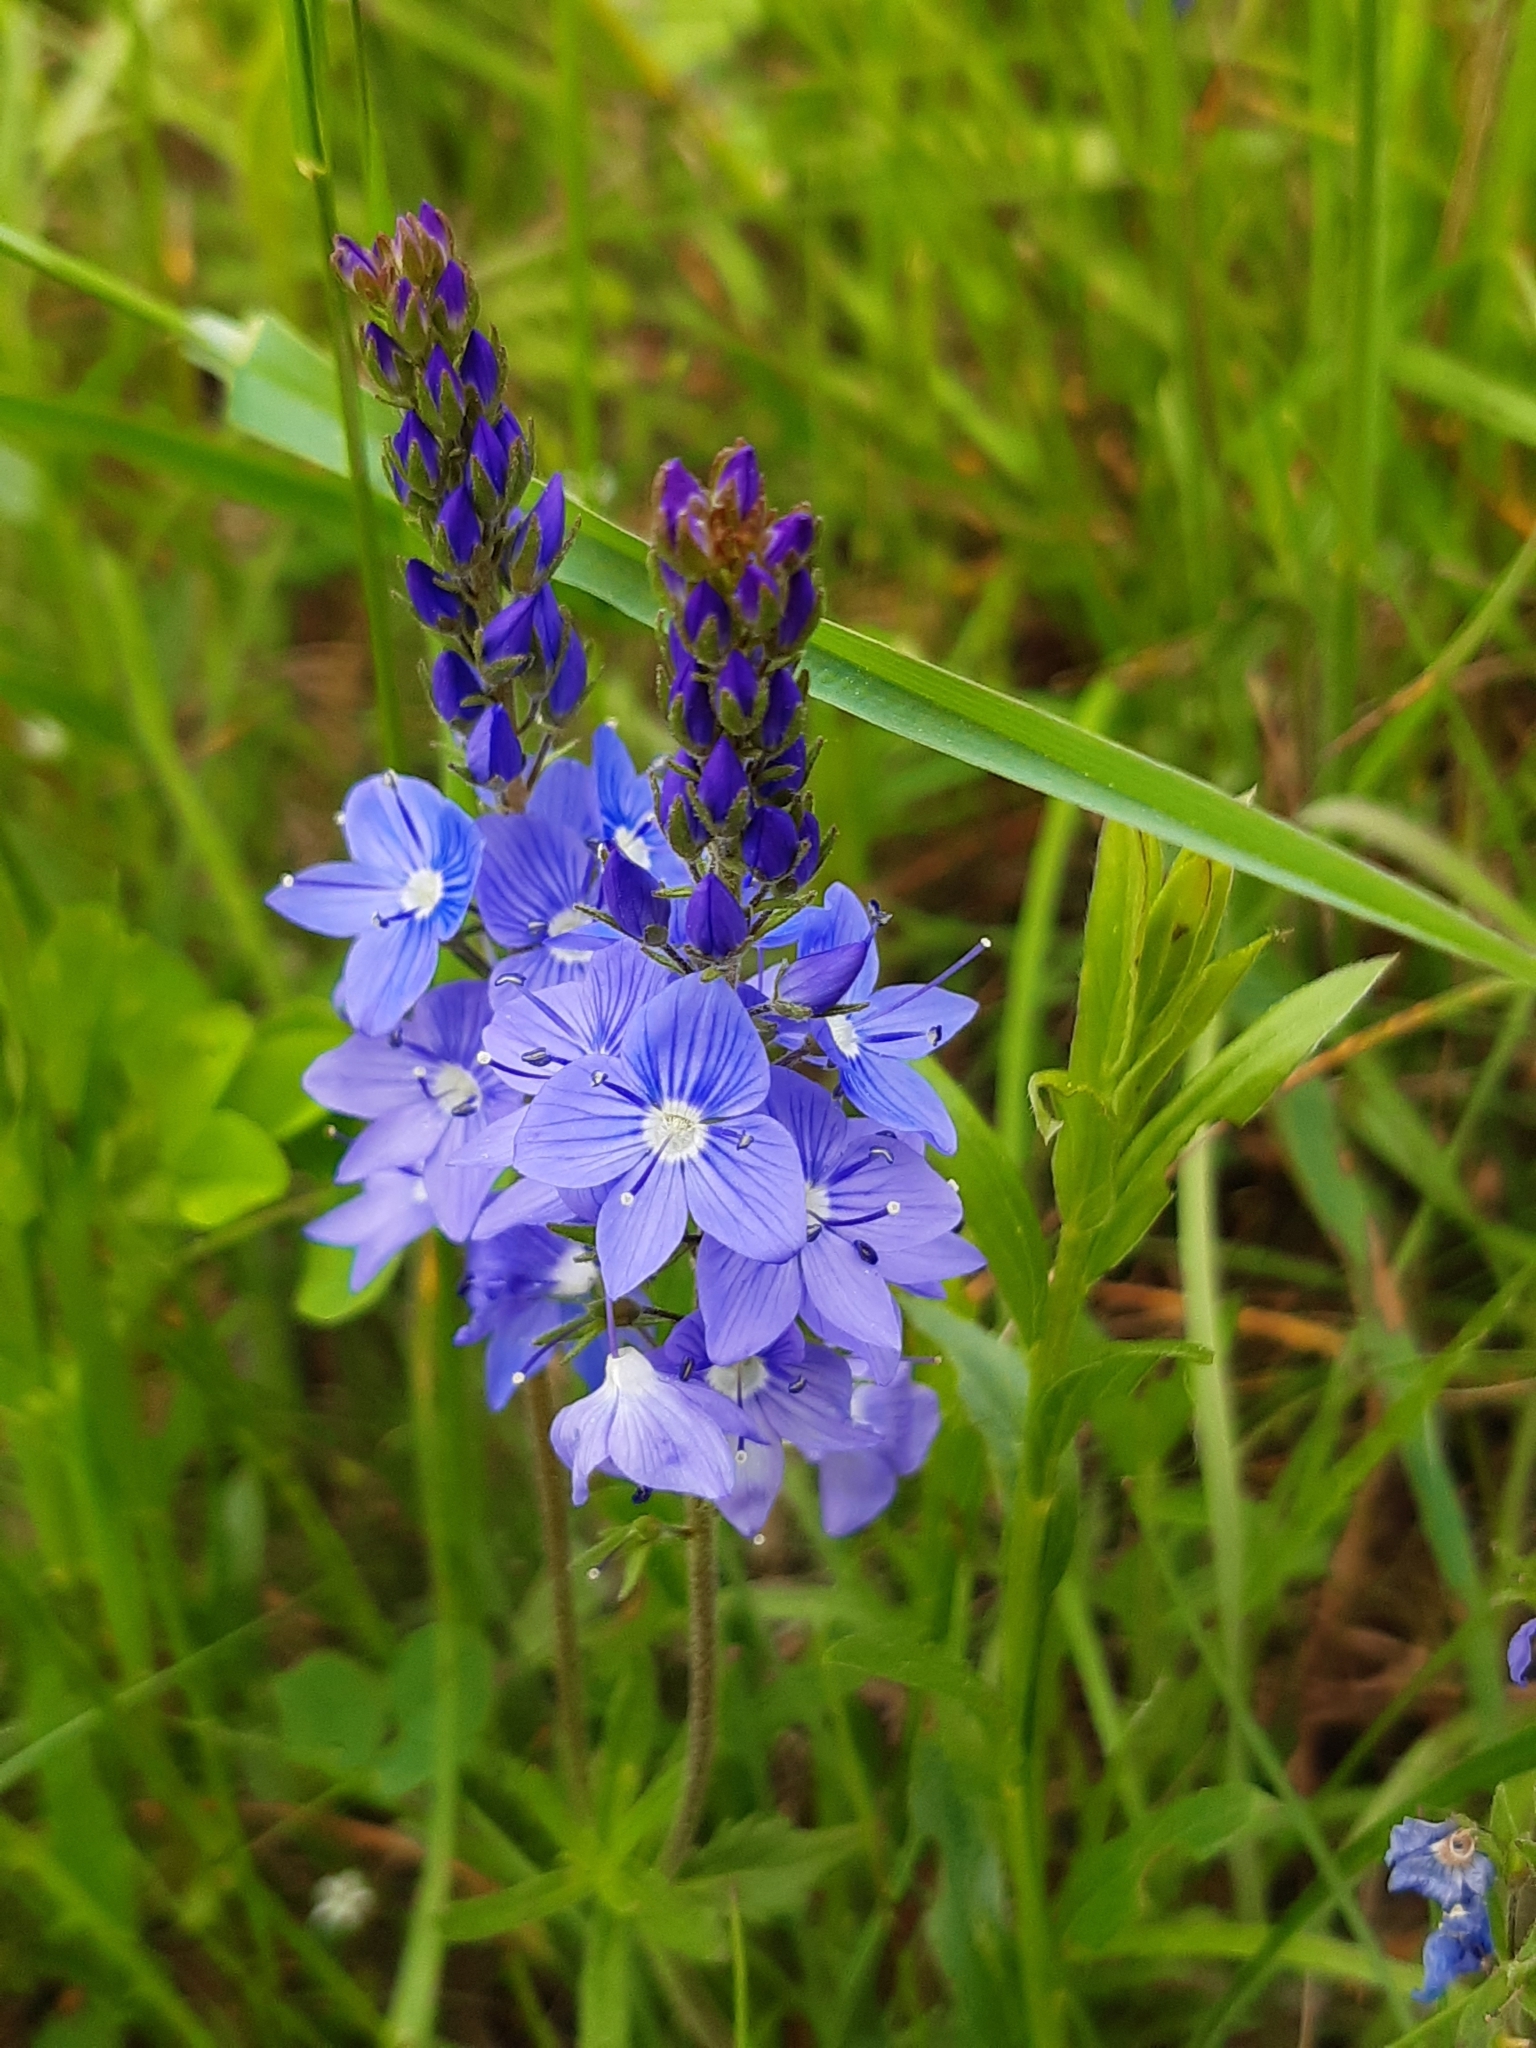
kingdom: Plantae
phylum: Tracheophyta
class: Magnoliopsida
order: Lamiales
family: Plantaginaceae
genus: Veronica
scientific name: Veronica teucrium
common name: Large speedwell
